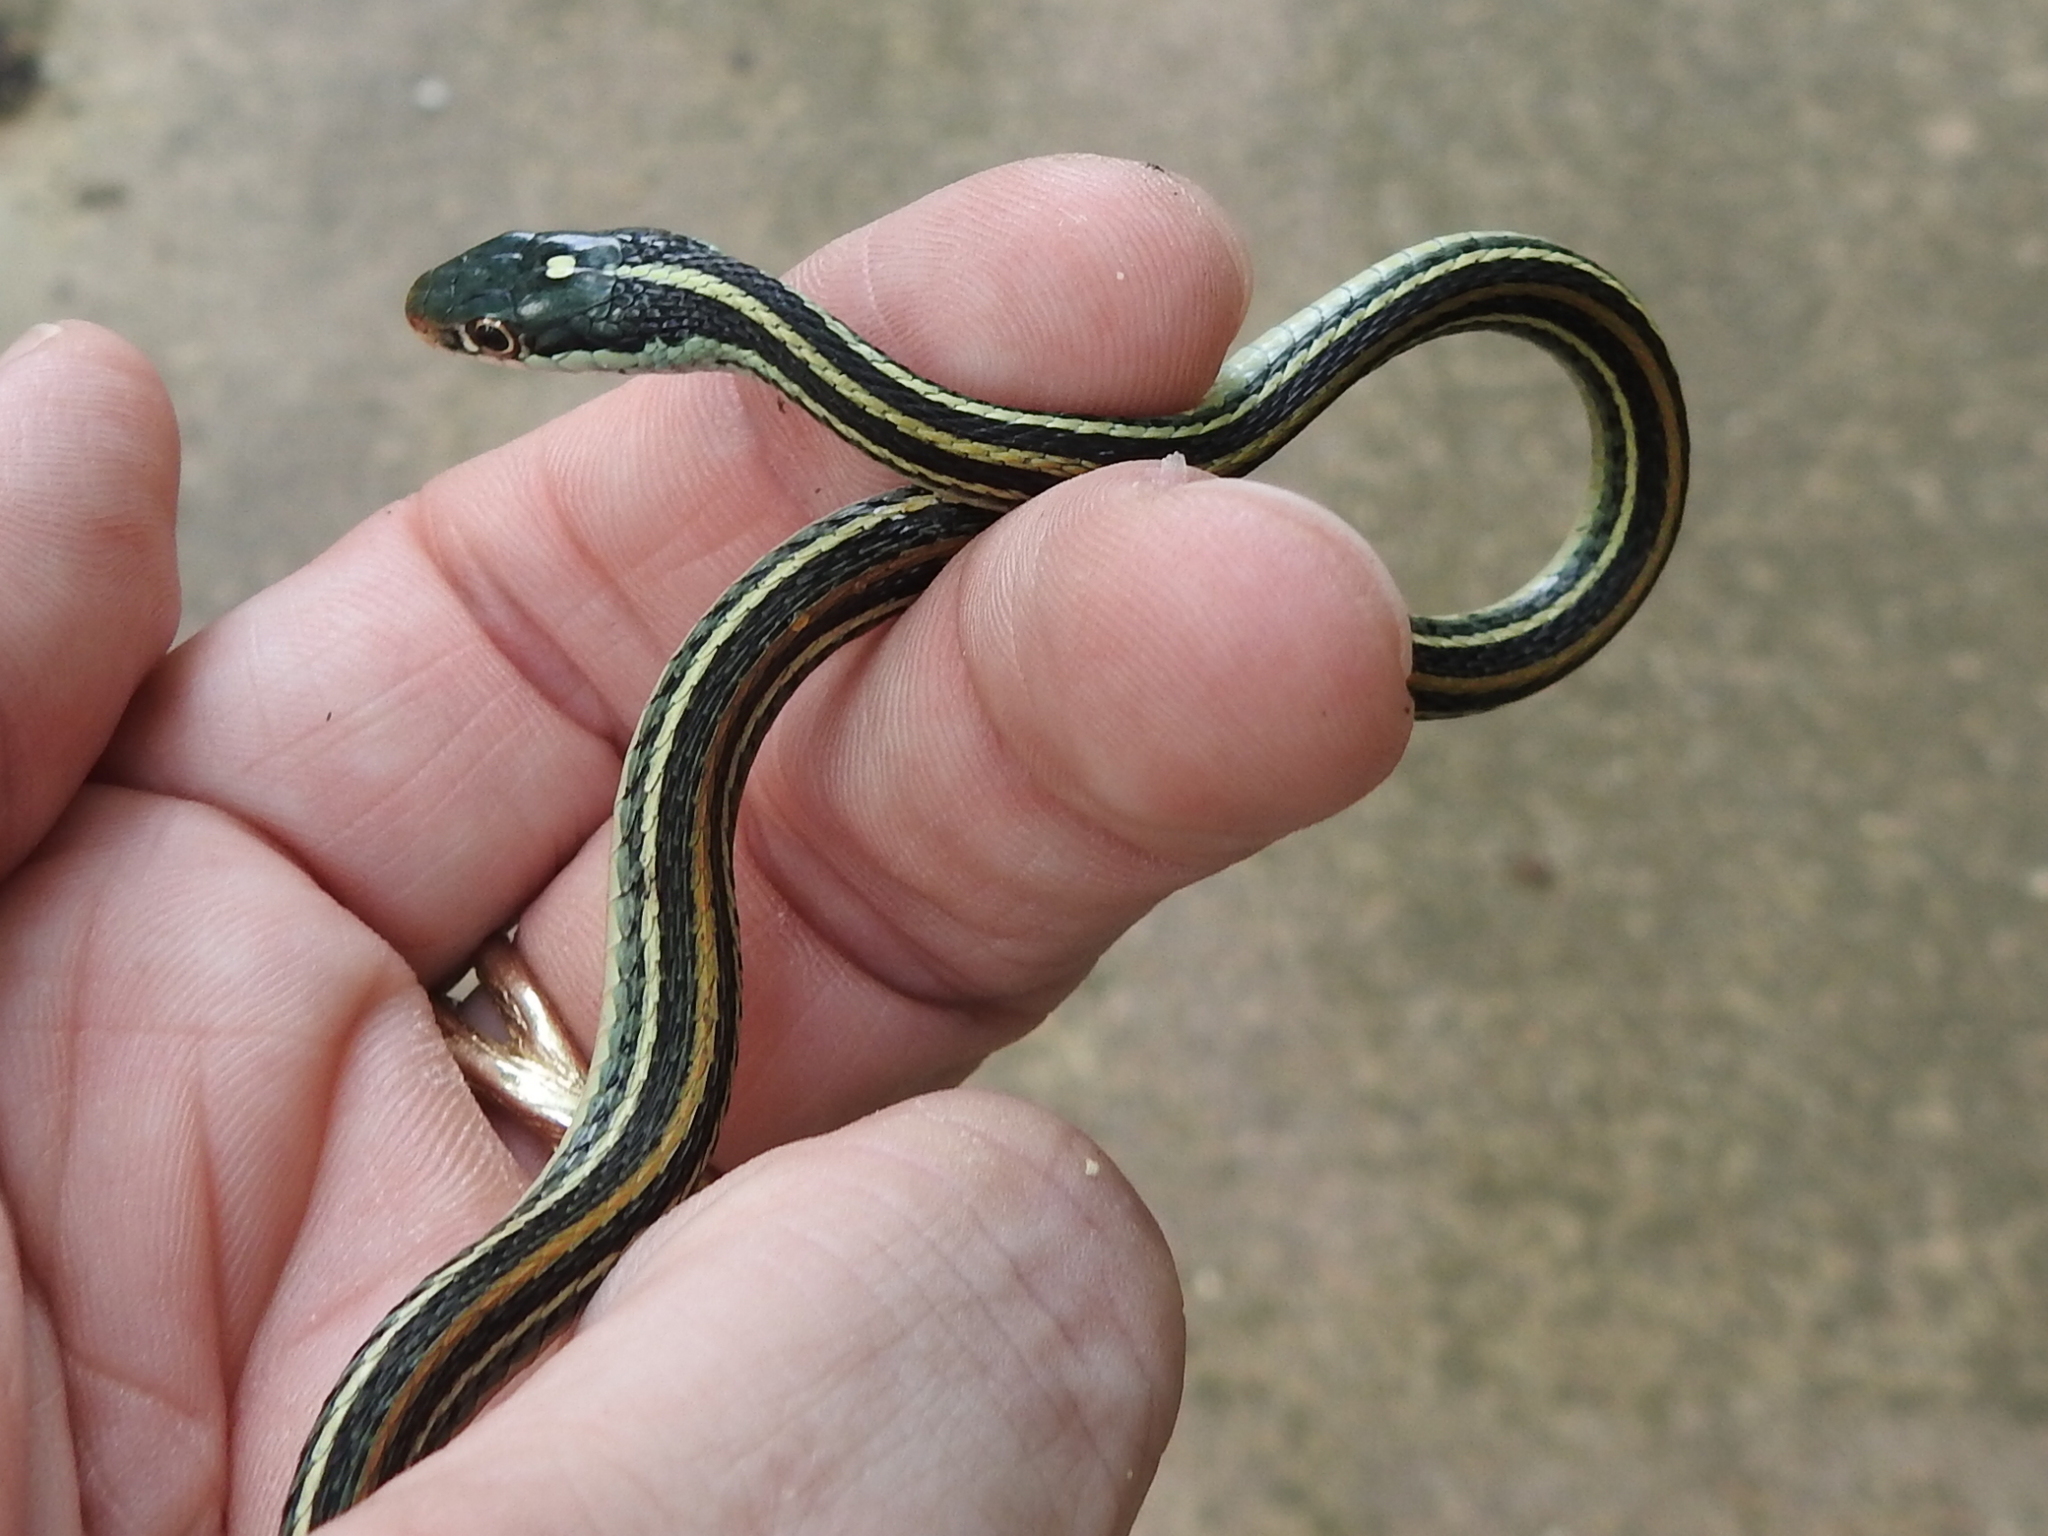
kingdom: Animalia
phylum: Chordata
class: Squamata
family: Colubridae
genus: Thamnophis
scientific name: Thamnophis proximus
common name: Western ribbon snake
